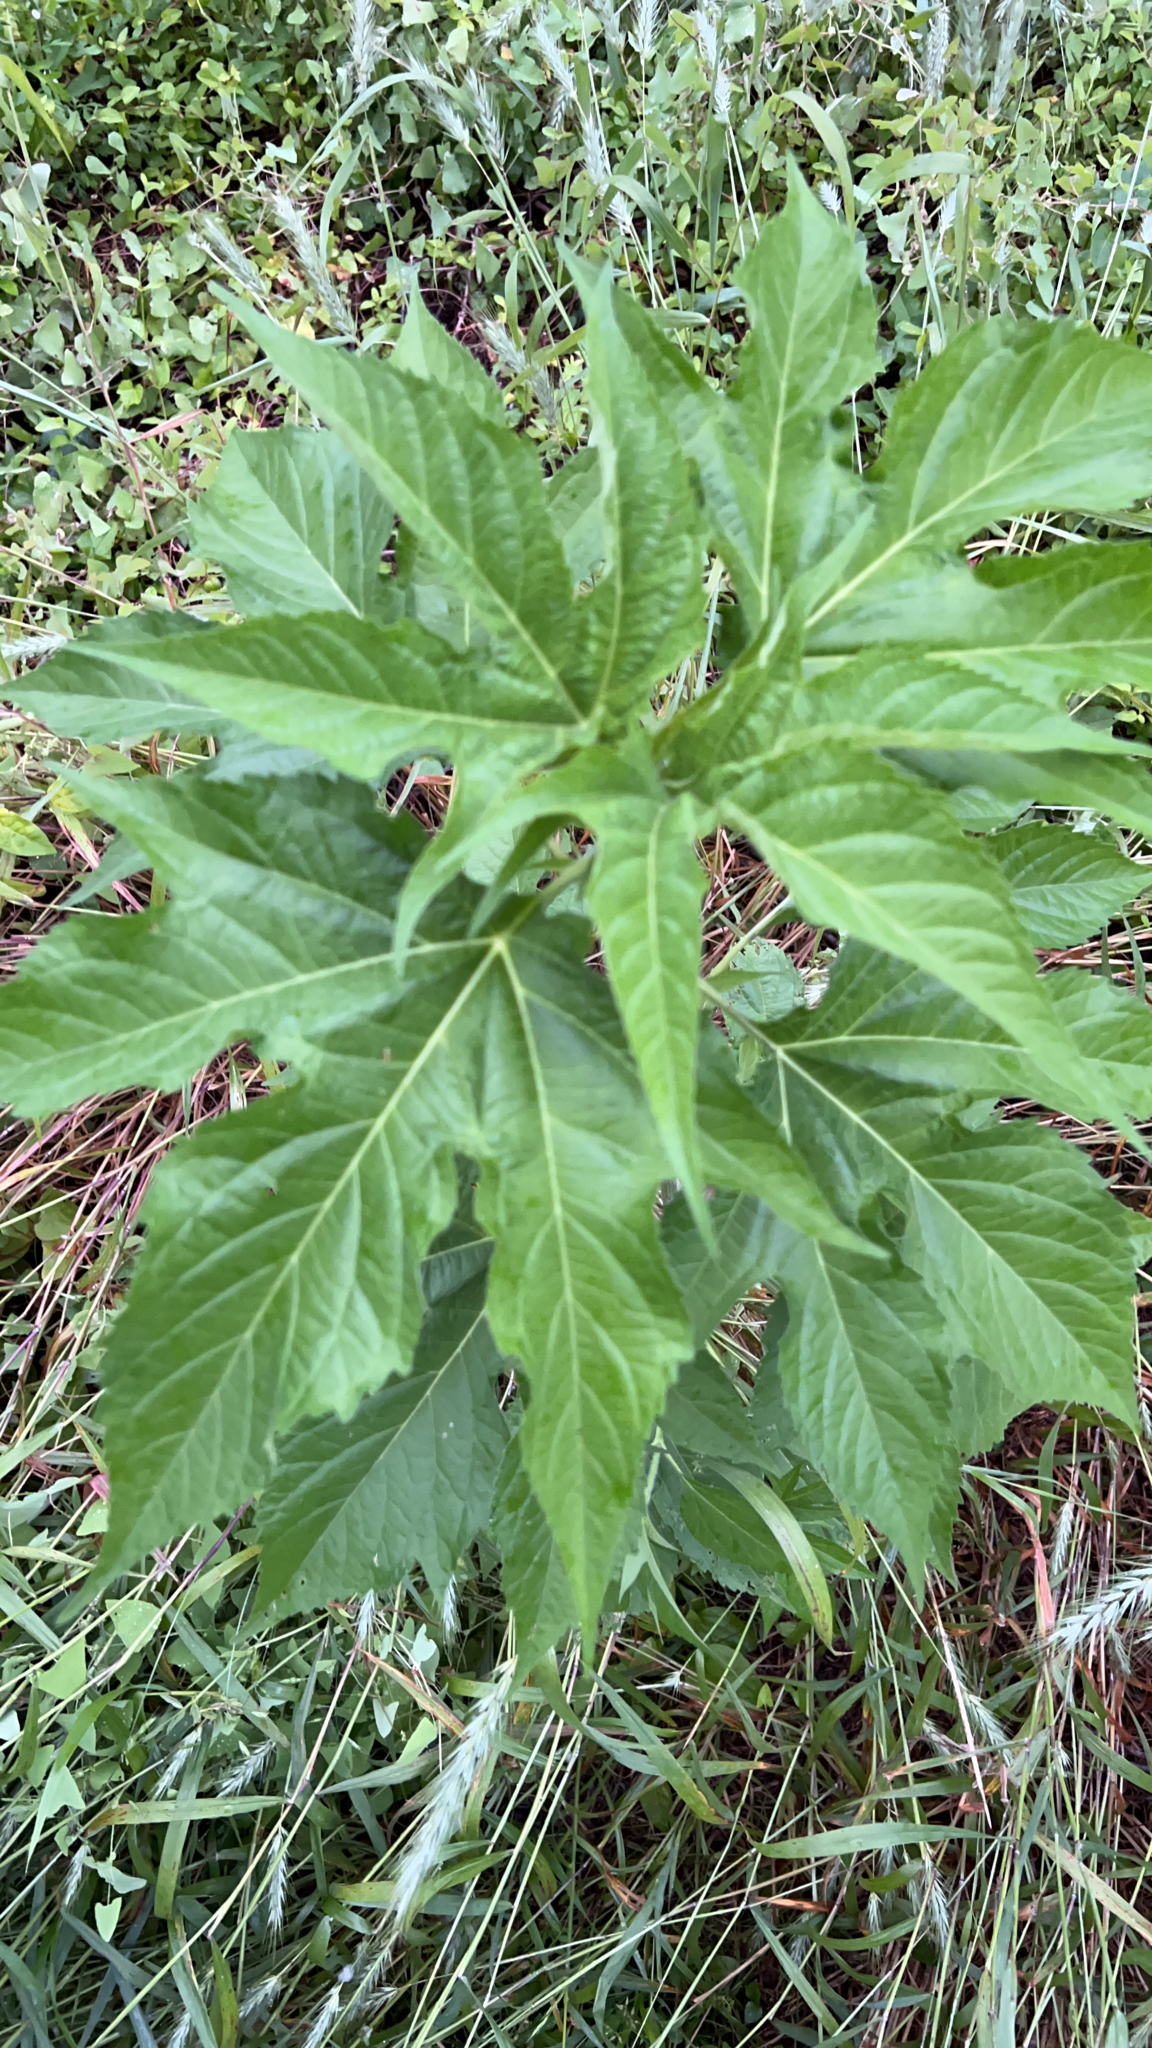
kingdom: Plantae
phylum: Tracheophyta
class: Magnoliopsida
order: Asterales
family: Asteraceae
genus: Ambrosia
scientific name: Ambrosia trifida
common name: Giant ragweed
